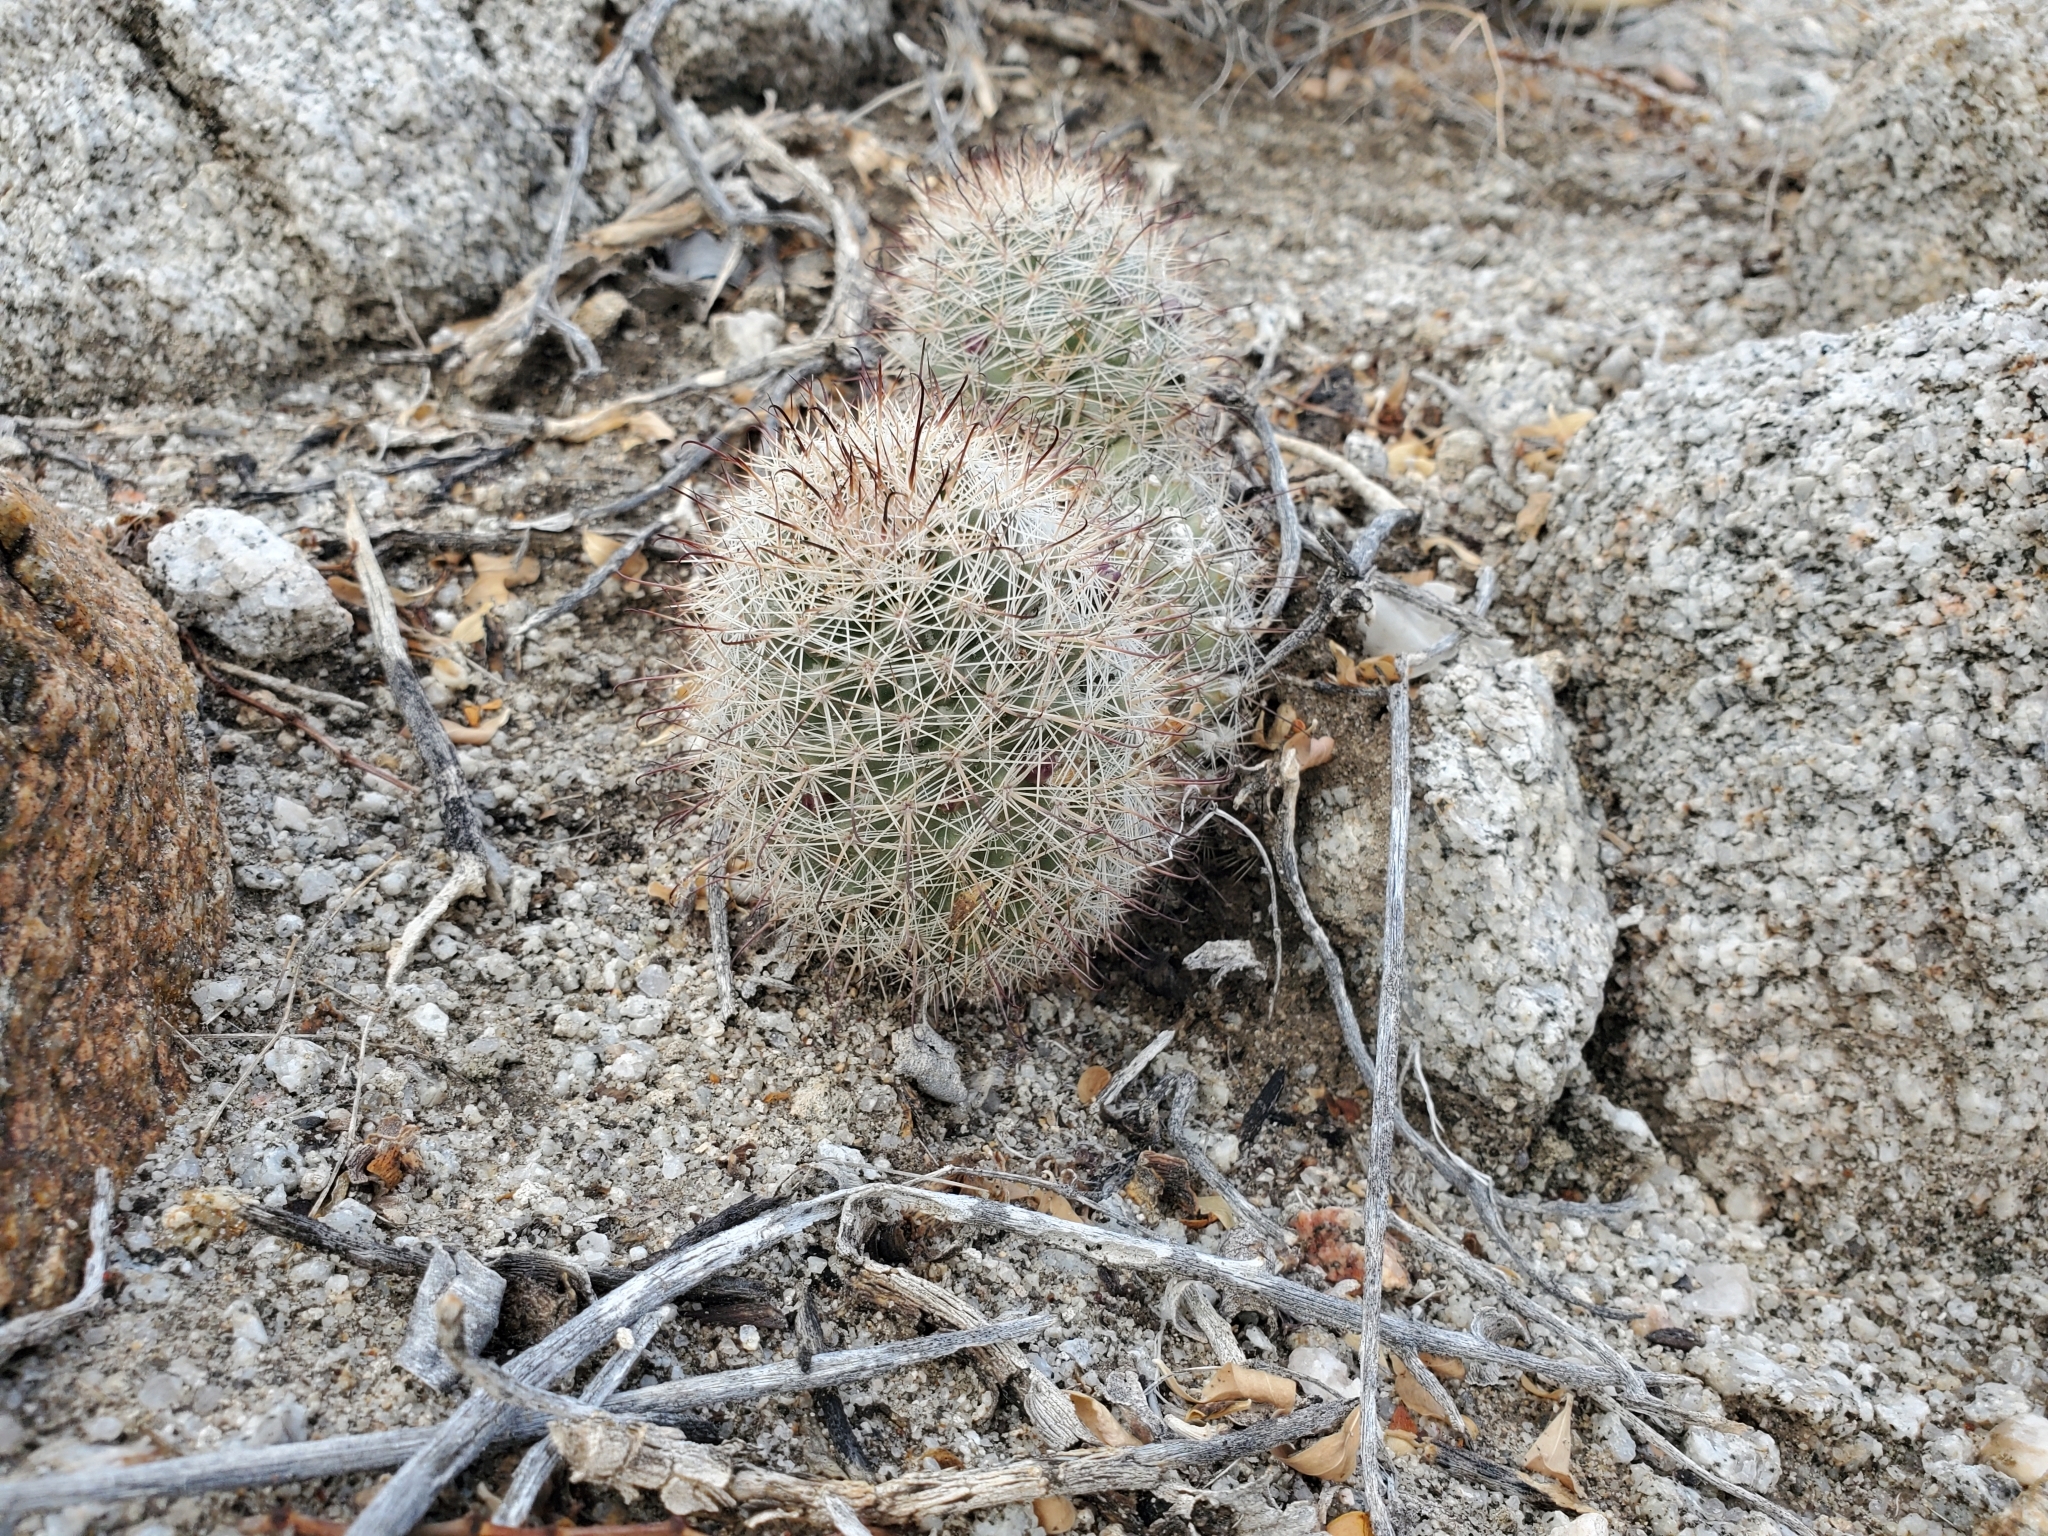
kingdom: Plantae
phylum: Tracheophyta
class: Magnoliopsida
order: Caryophyllales
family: Cactaceae
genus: Cochemiea
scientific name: Cochemiea dioica
